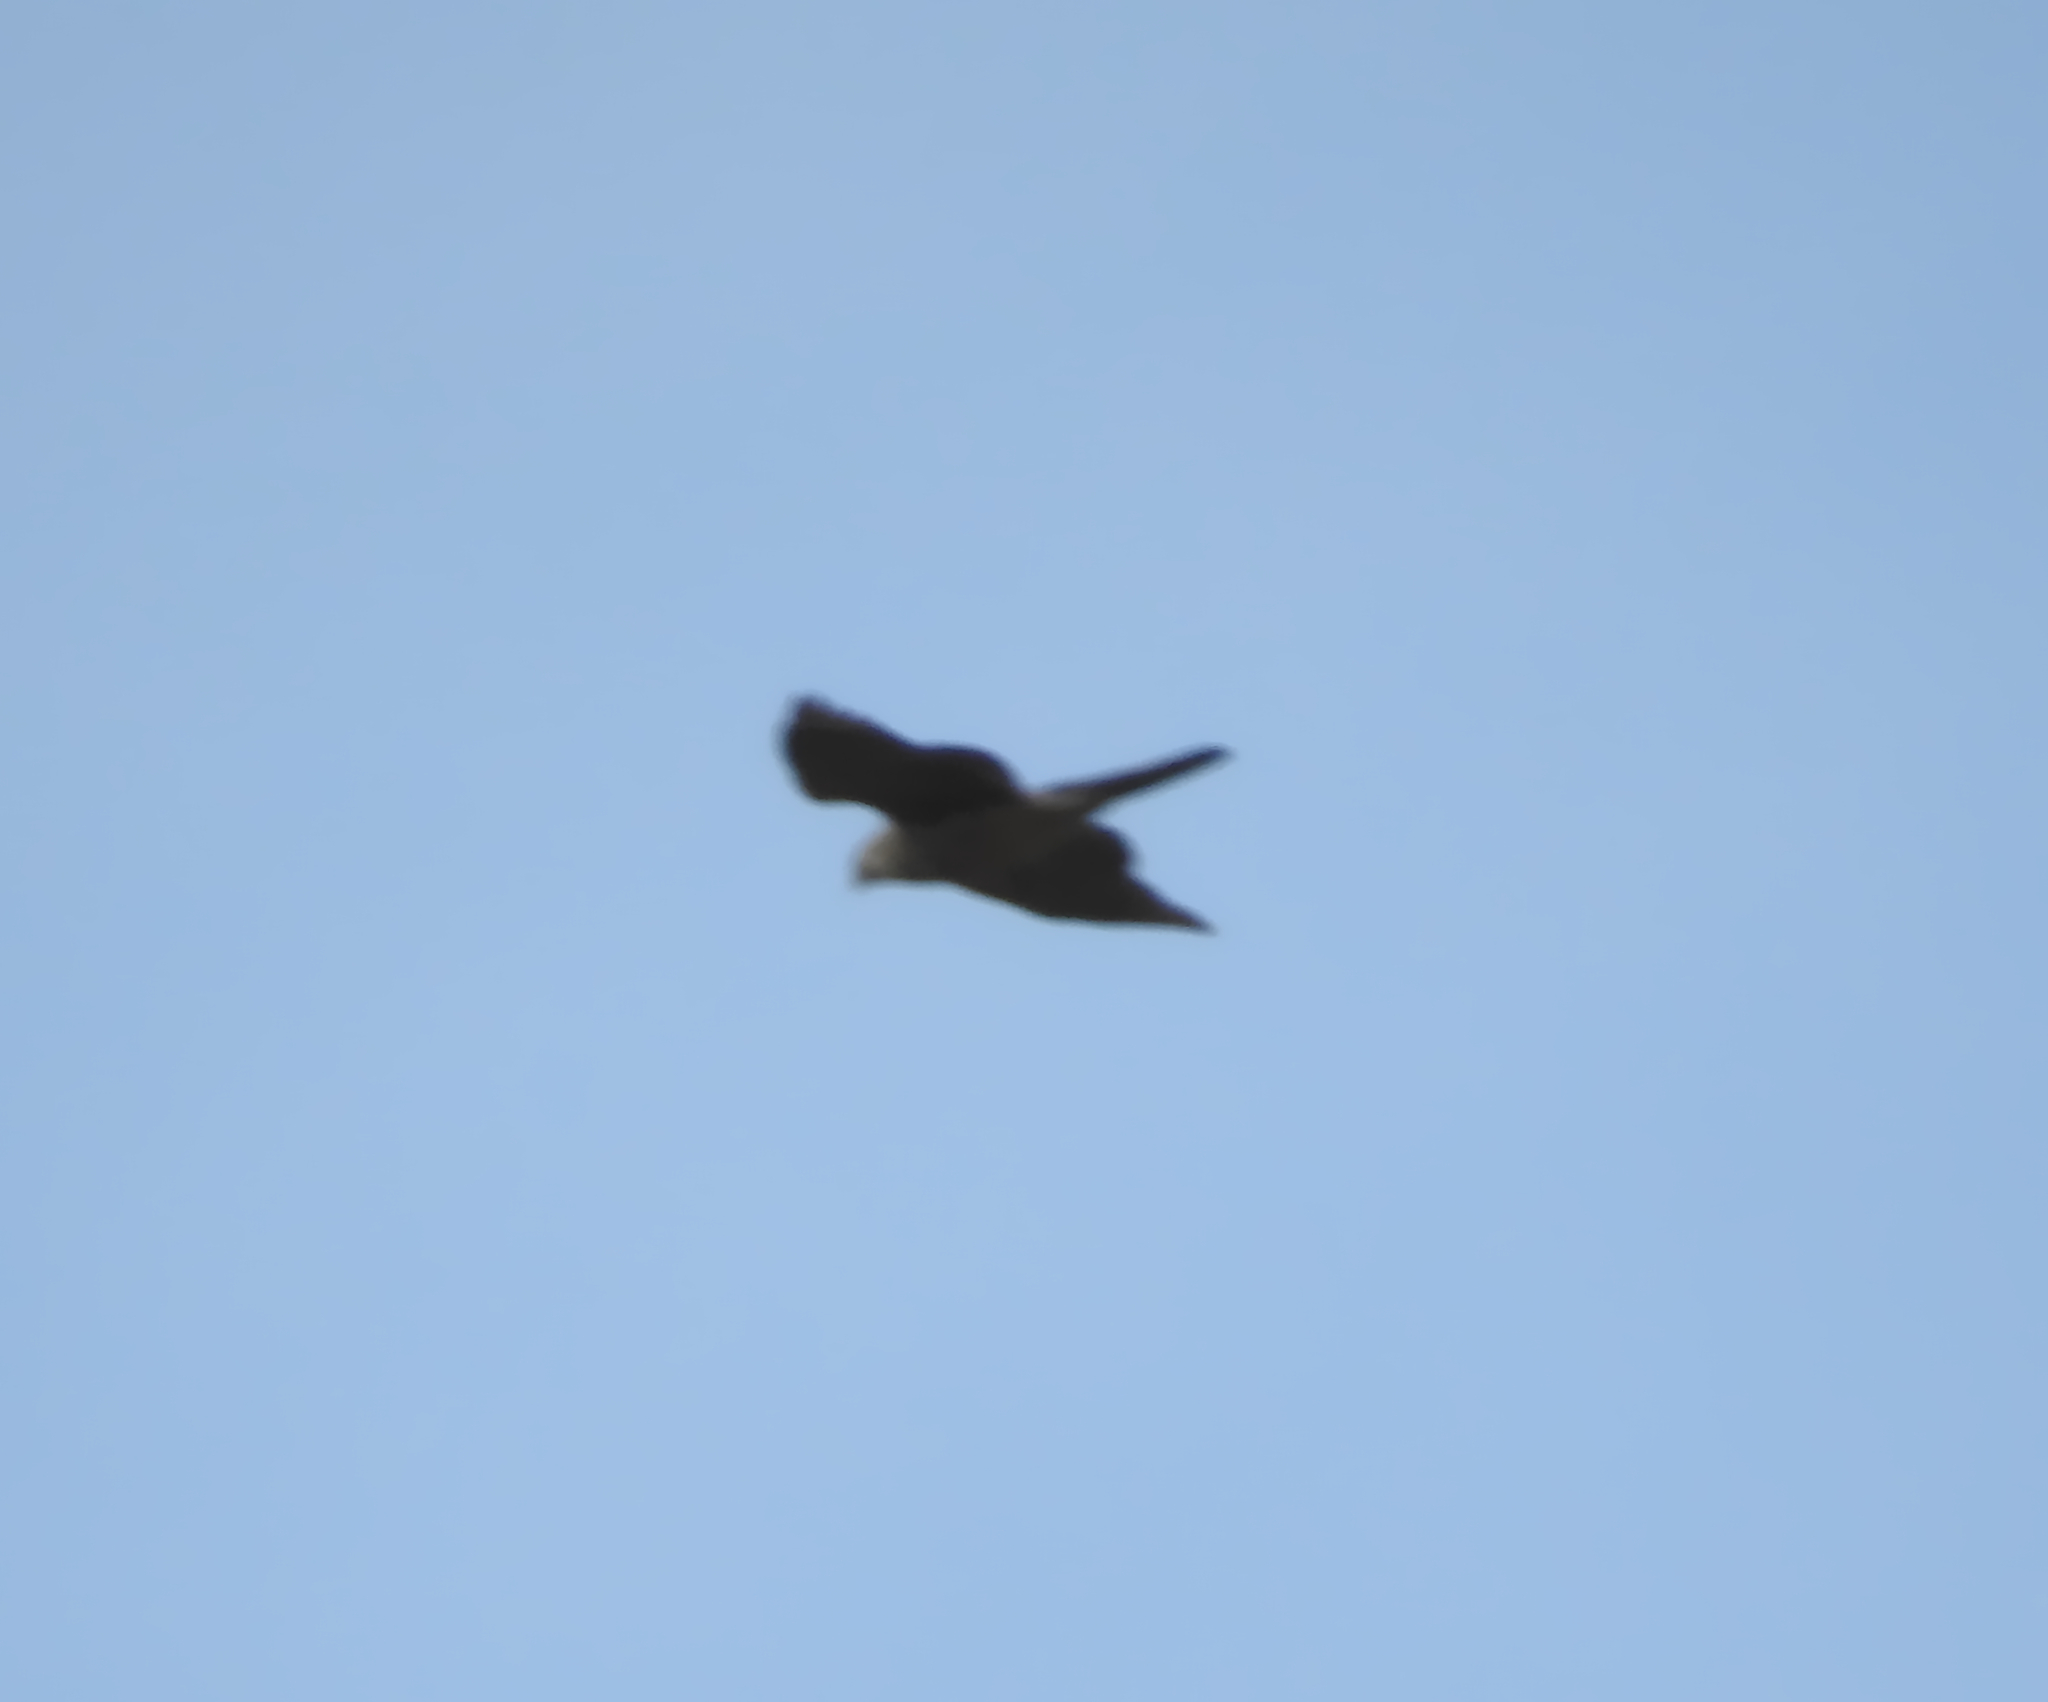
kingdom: Animalia
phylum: Chordata
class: Aves
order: Accipitriformes
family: Accipitridae
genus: Accipiter
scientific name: Accipiter nisus
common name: Eurasian sparrowhawk
